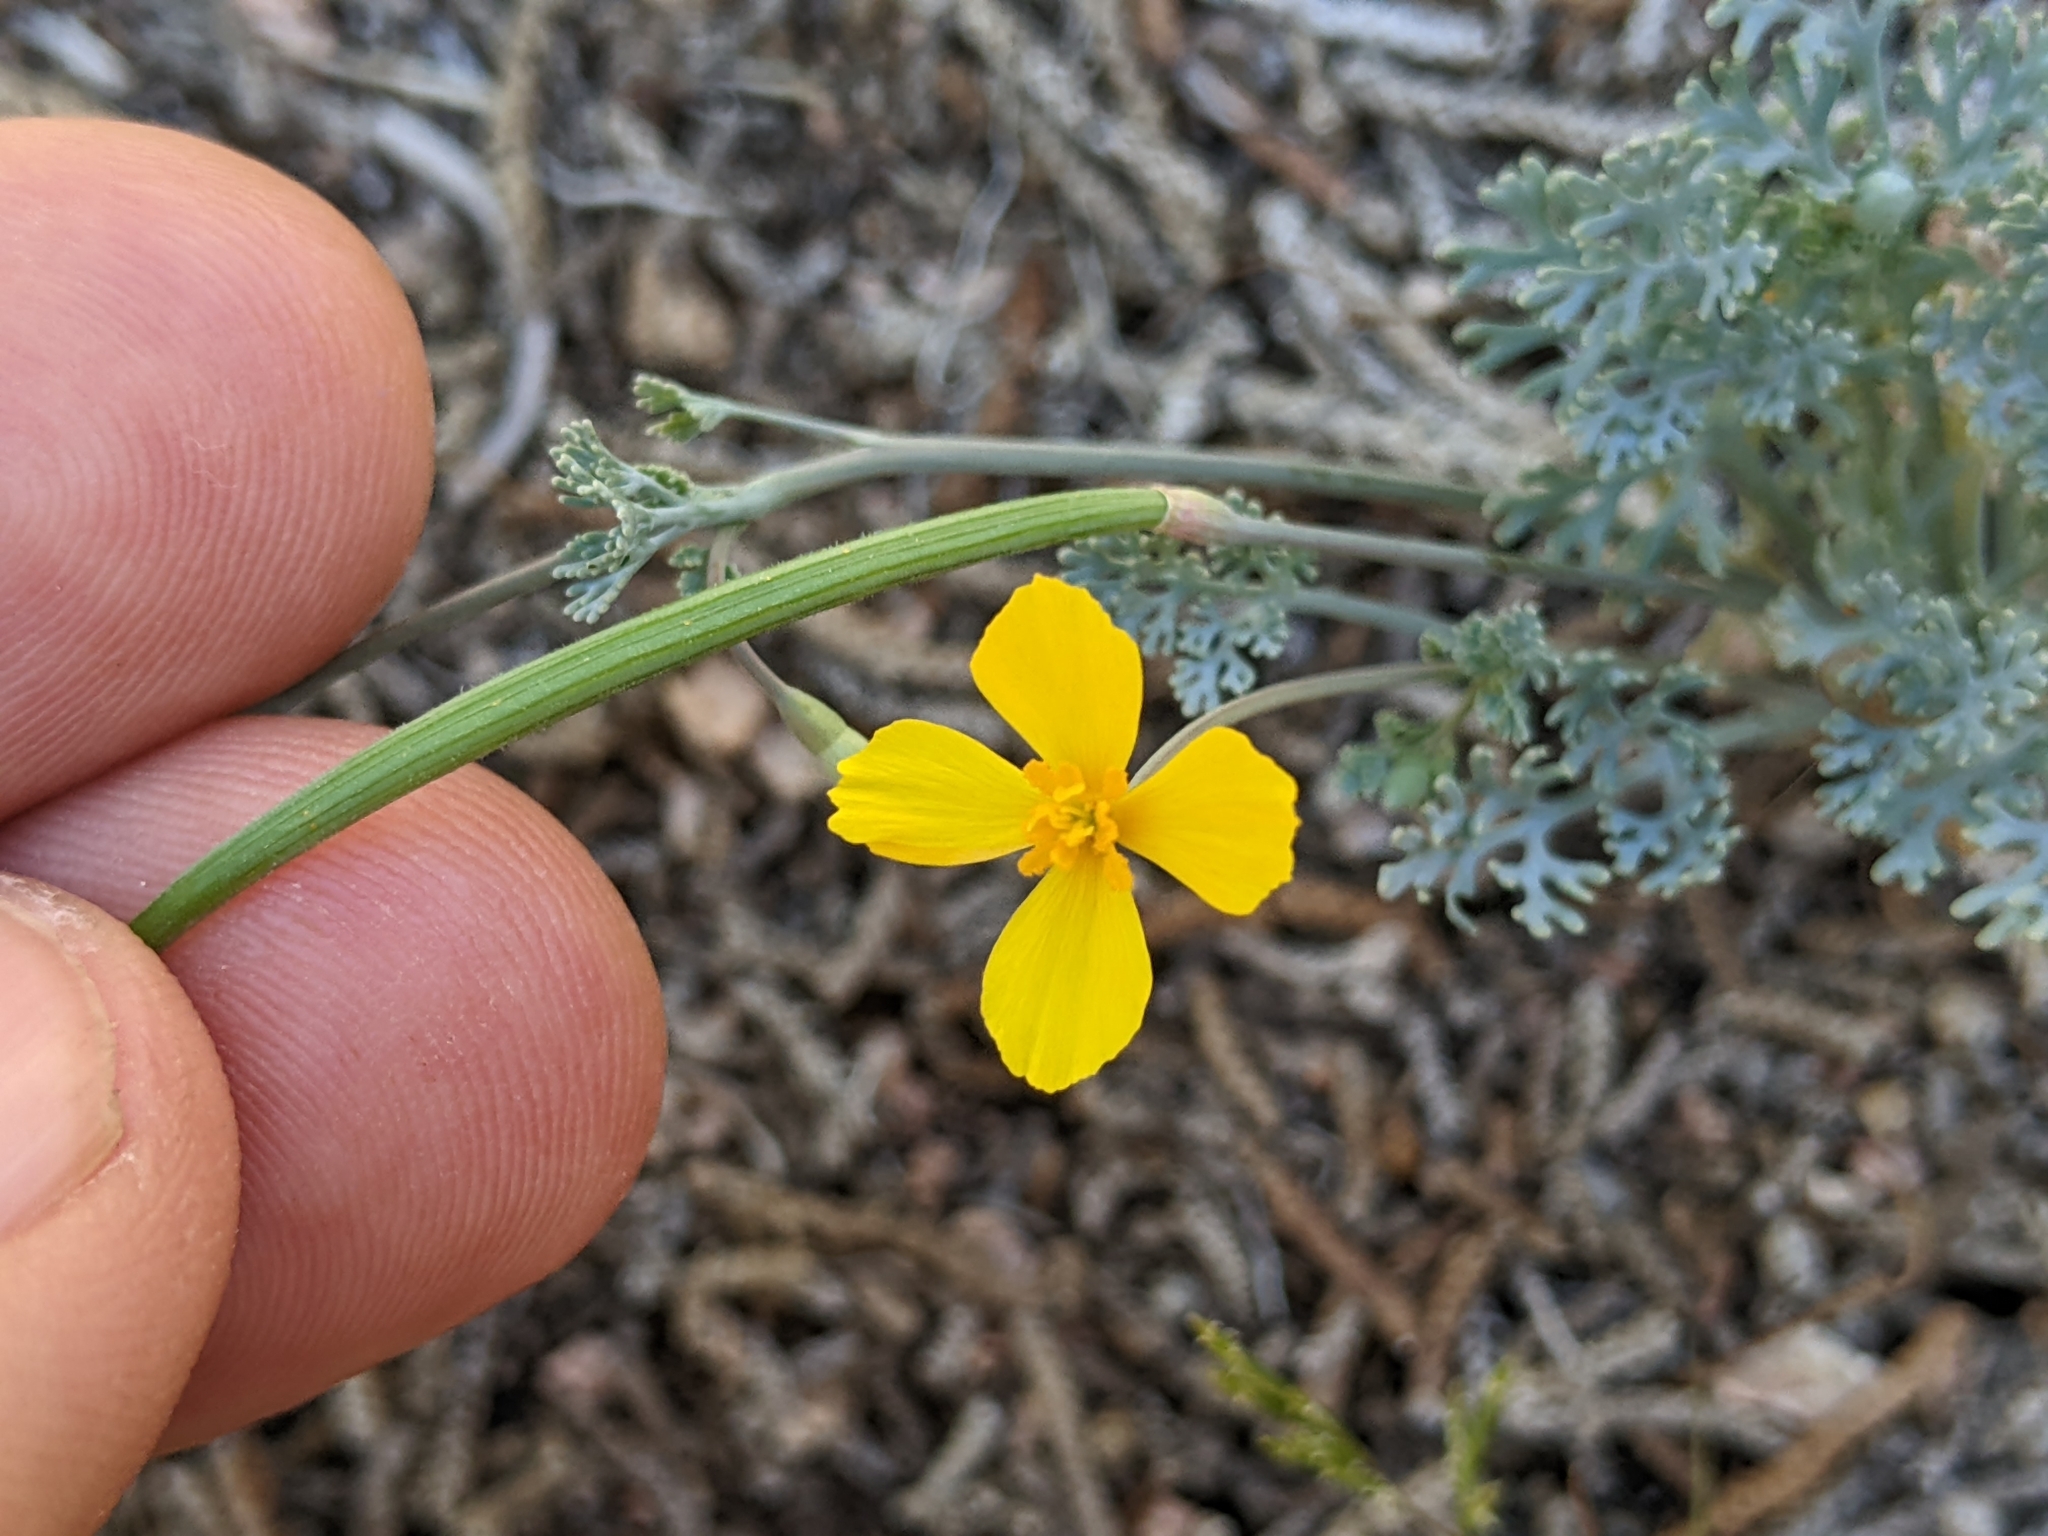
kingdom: Plantae
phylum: Tracheophyta
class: Magnoliopsida
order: Ranunculales
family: Papaveraceae
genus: Eschscholzia
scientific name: Eschscholzia minutiflora
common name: Small-flower california-poppy
